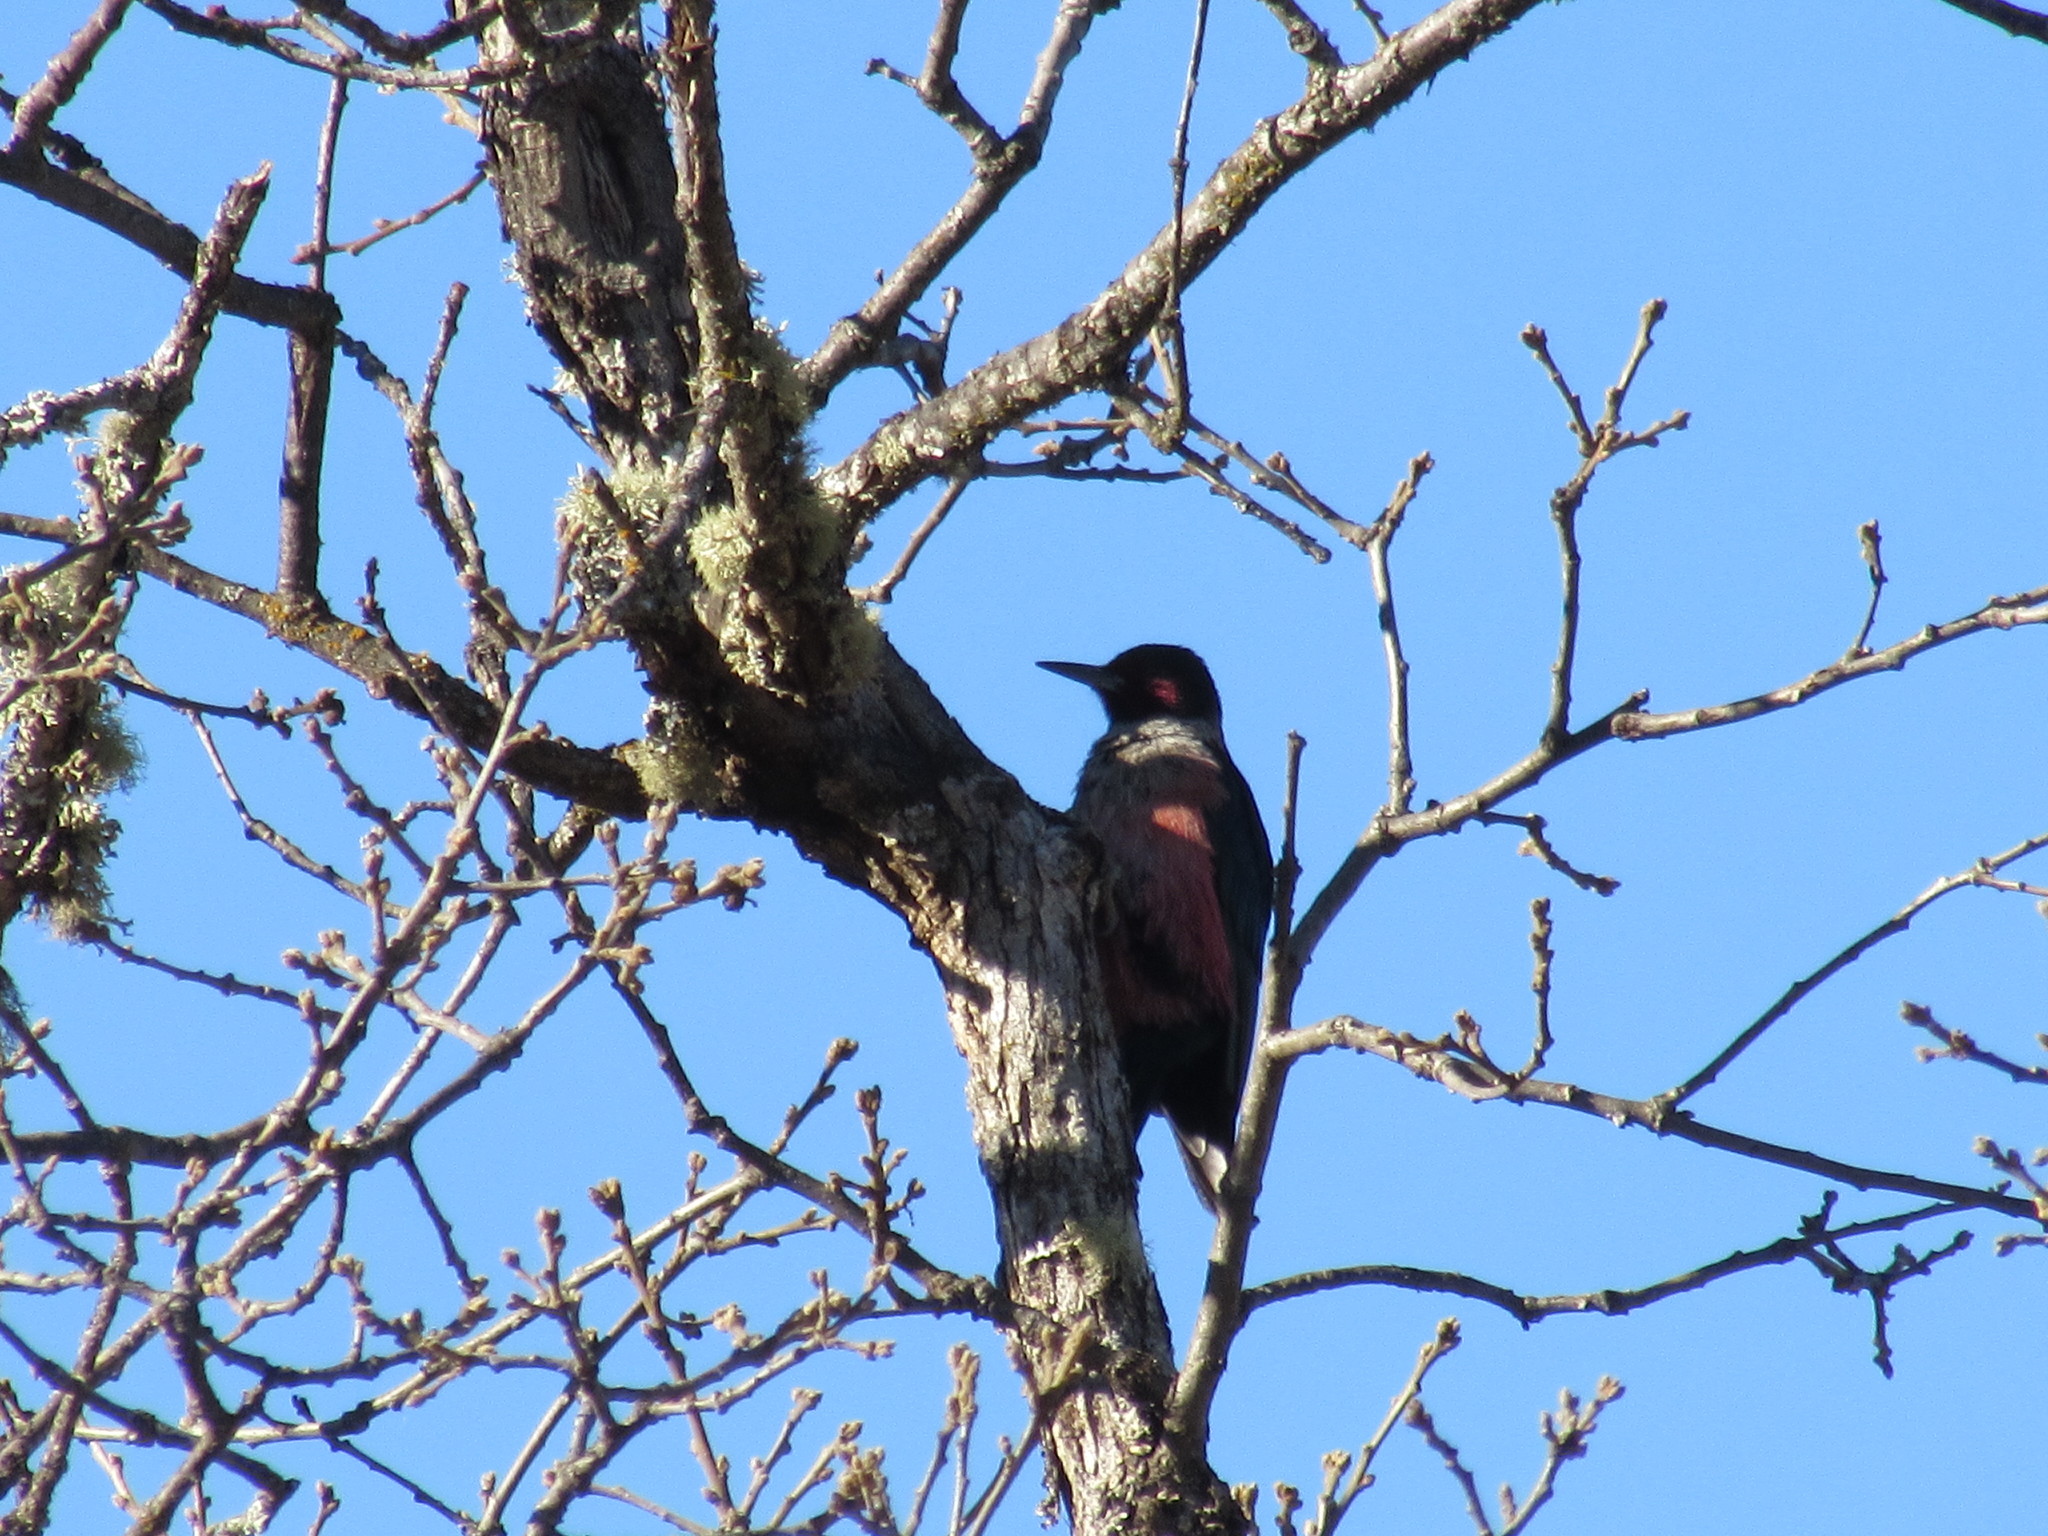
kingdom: Animalia
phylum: Chordata
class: Aves
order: Piciformes
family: Picidae
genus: Melanerpes
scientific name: Melanerpes lewis
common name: Lewis's woodpecker
